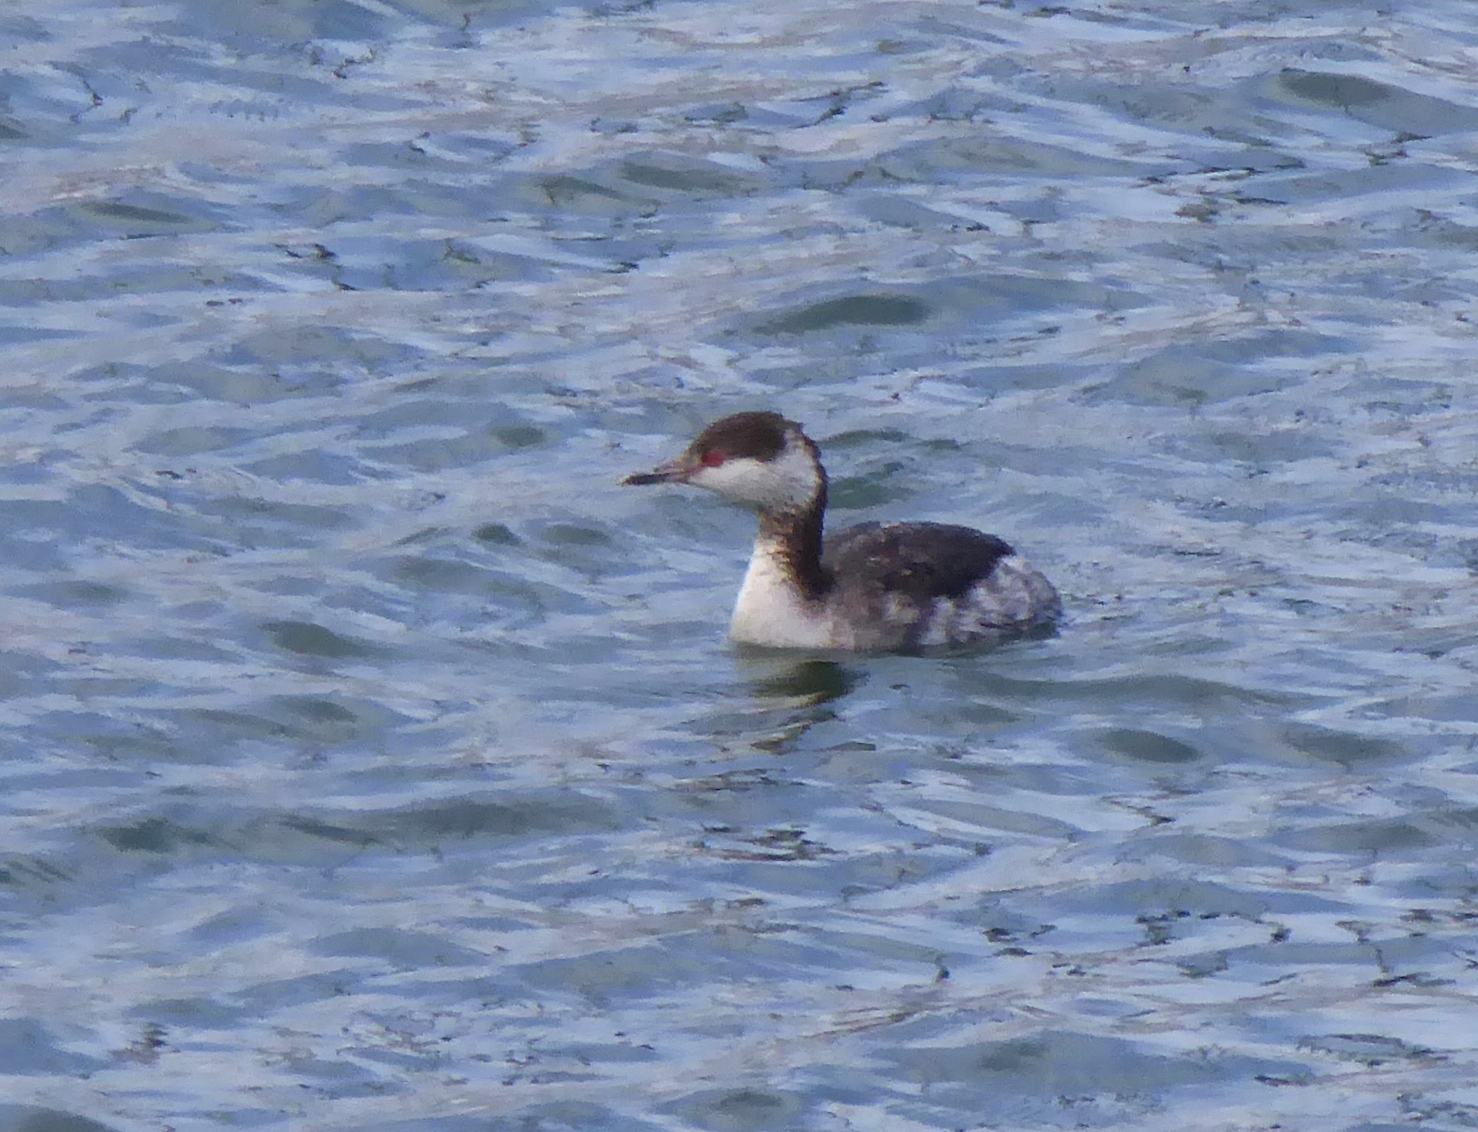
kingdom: Animalia
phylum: Chordata
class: Aves
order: Podicipediformes
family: Podicipedidae
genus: Podiceps
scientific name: Podiceps auritus
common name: Horned grebe
